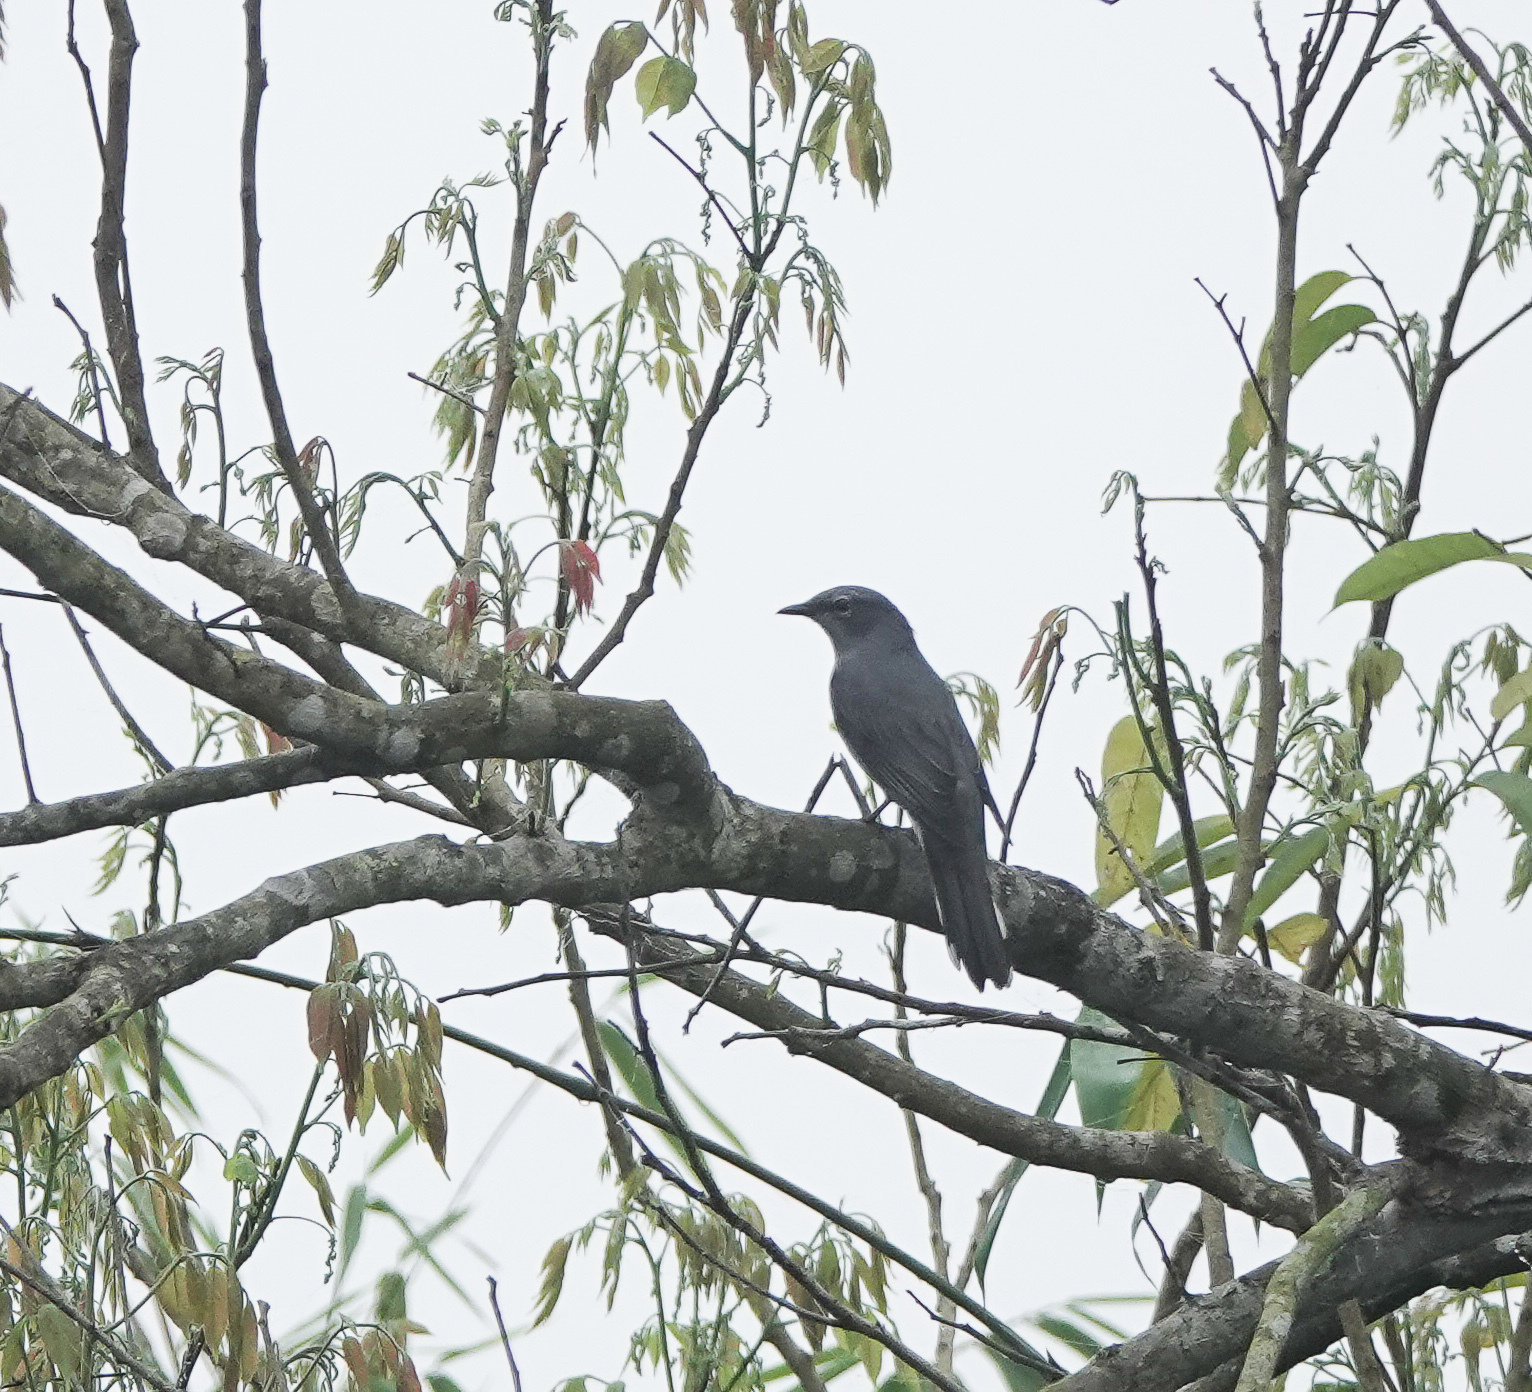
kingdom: Animalia
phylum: Chordata
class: Aves
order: Passeriformes
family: Campephagidae
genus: Coracina
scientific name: Coracina melaschistos
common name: Black-winged cuckooshrike
